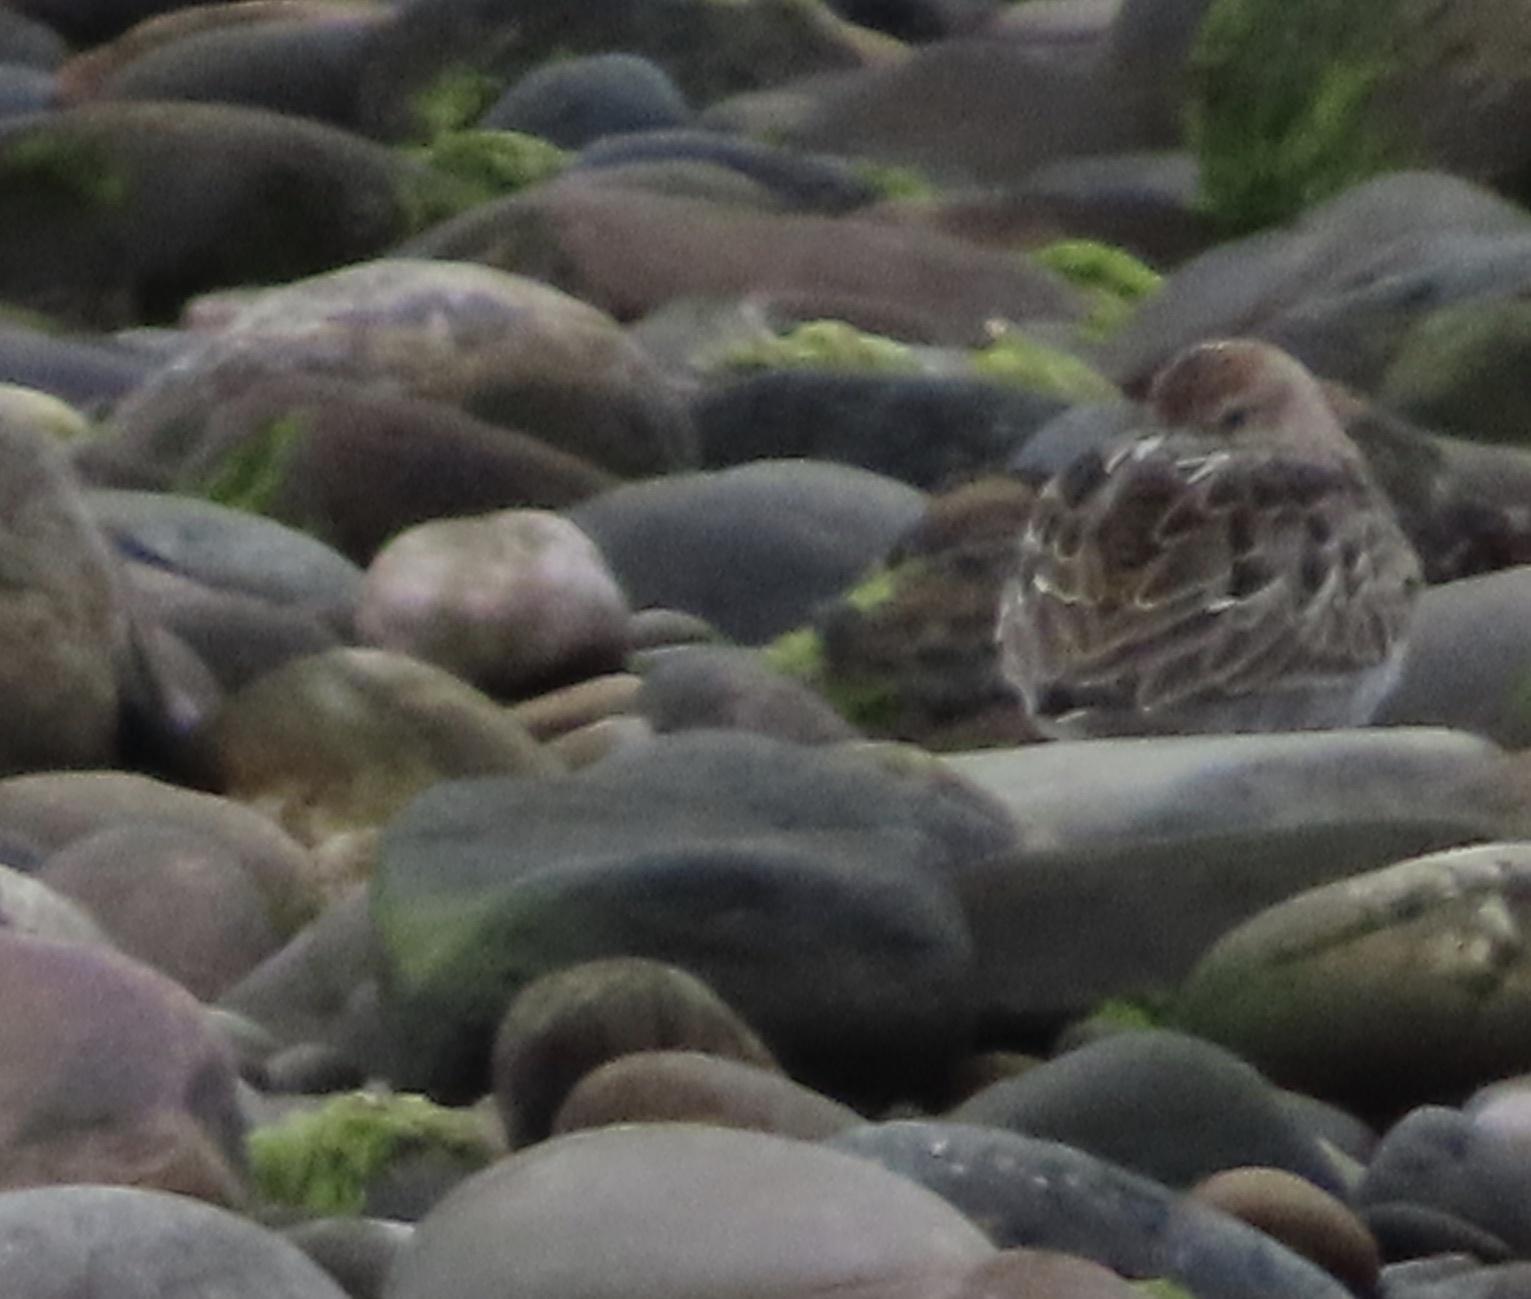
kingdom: Animalia
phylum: Chordata
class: Aves
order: Charadriiformes
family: Scolopacidae
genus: Calidris
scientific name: Calidris alpina
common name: Dunlin
